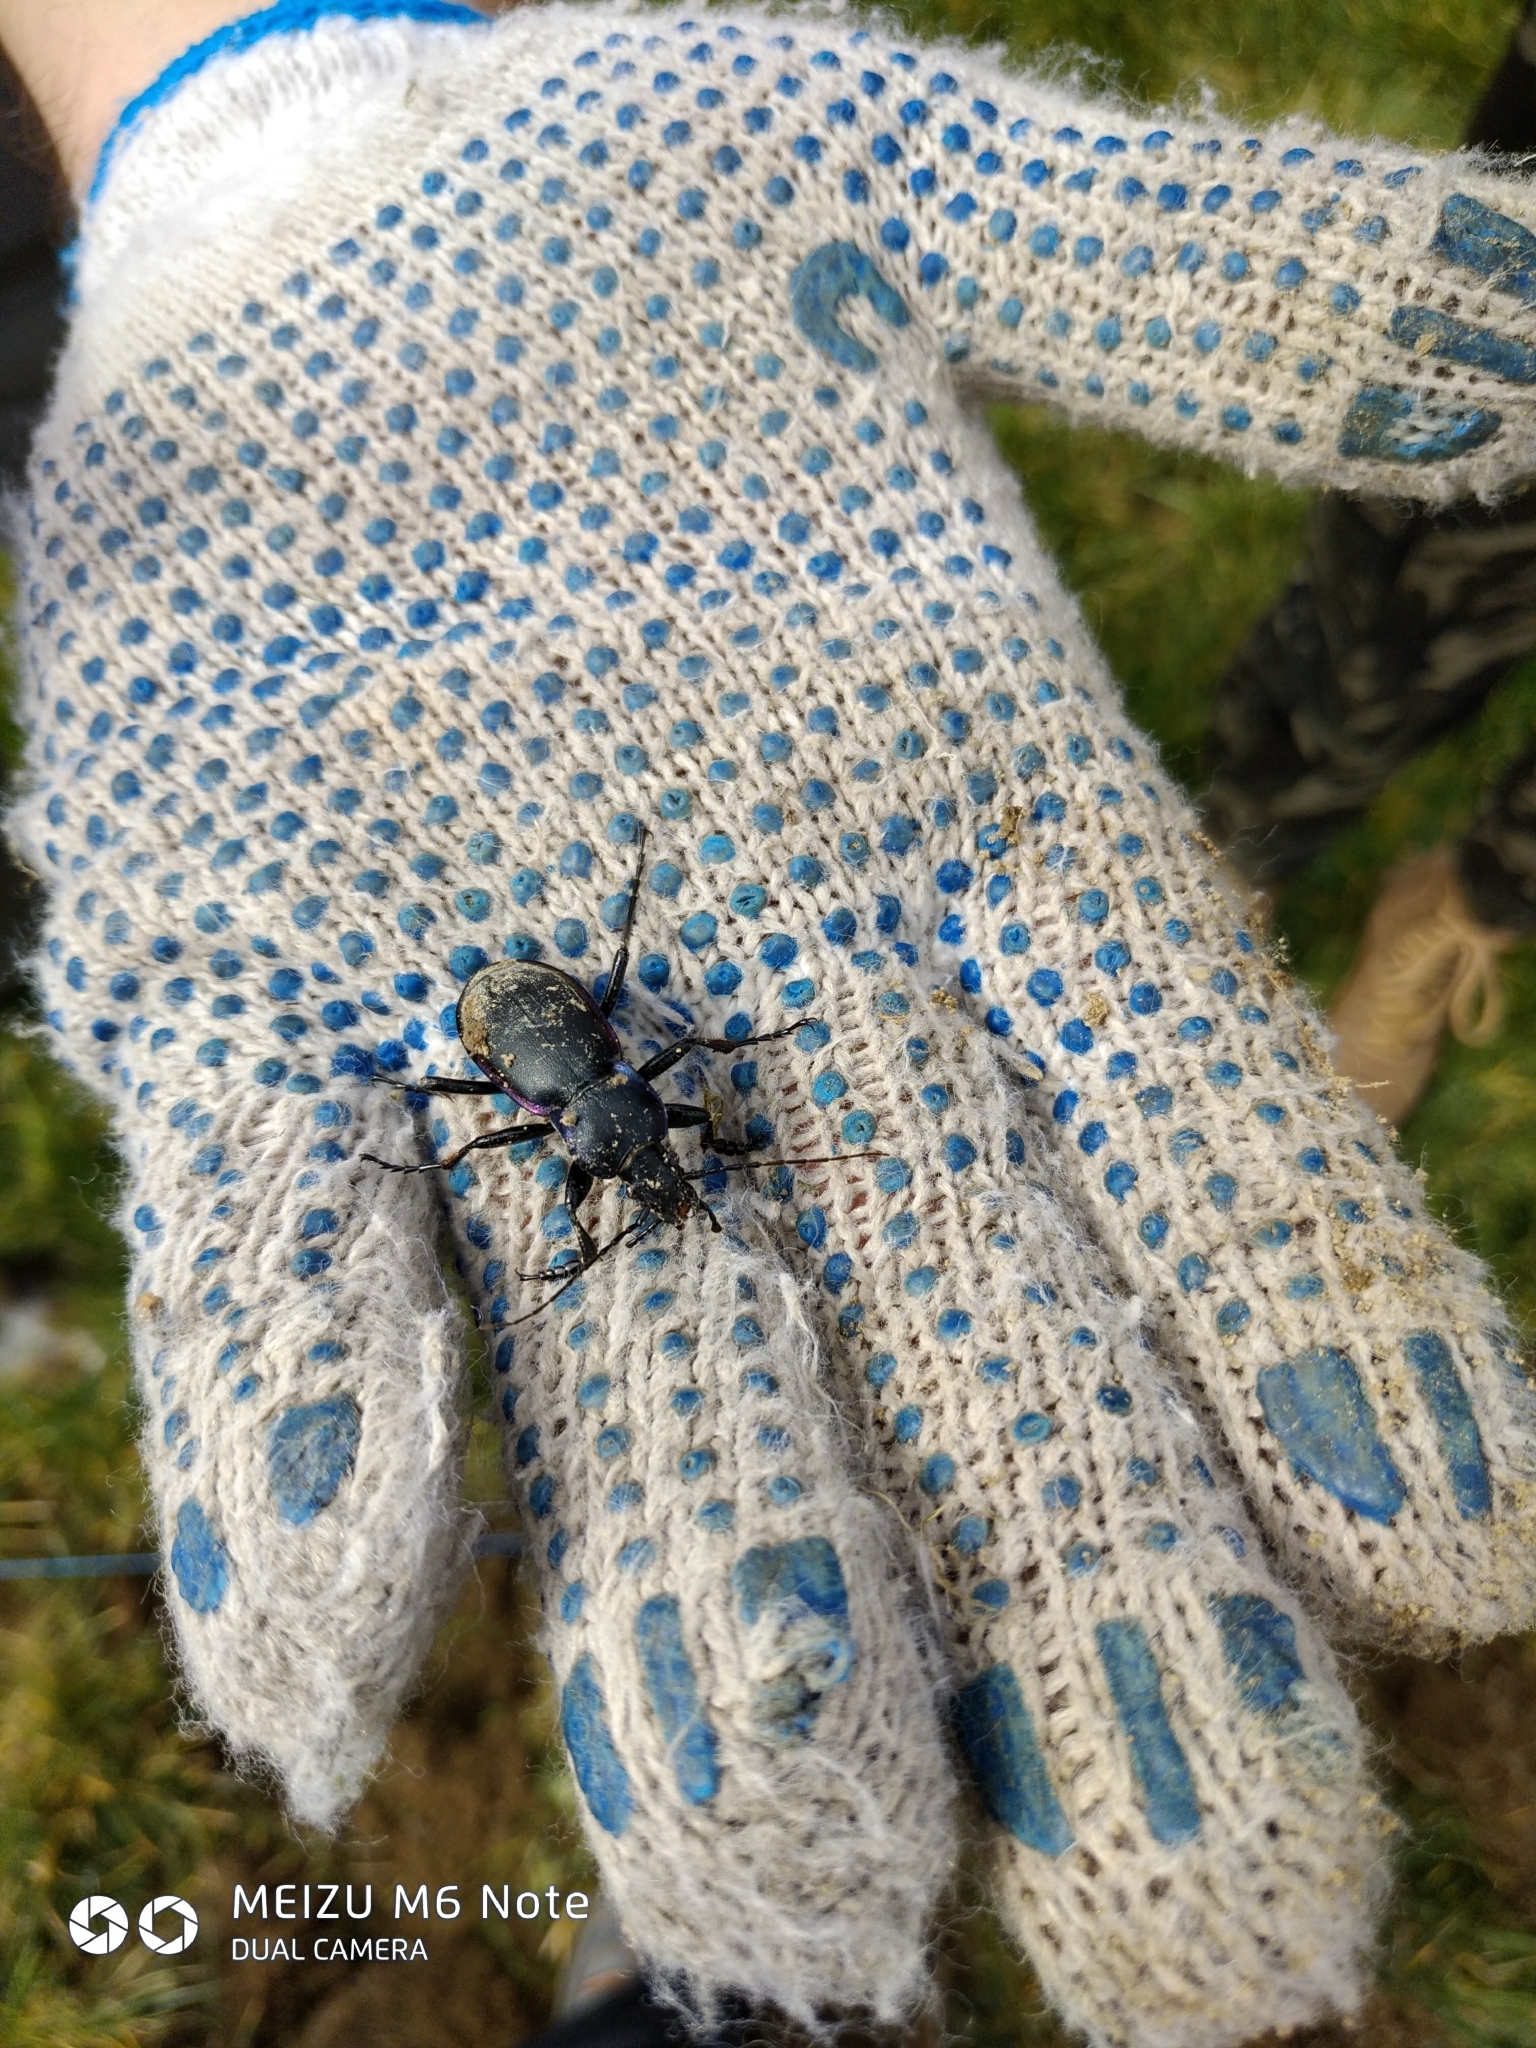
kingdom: Animalia
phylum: Arthropoda
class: Insecta
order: Coleoptera
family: Carabidae
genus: Carabus
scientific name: Carabus violaceus
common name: Violet ground beetle
